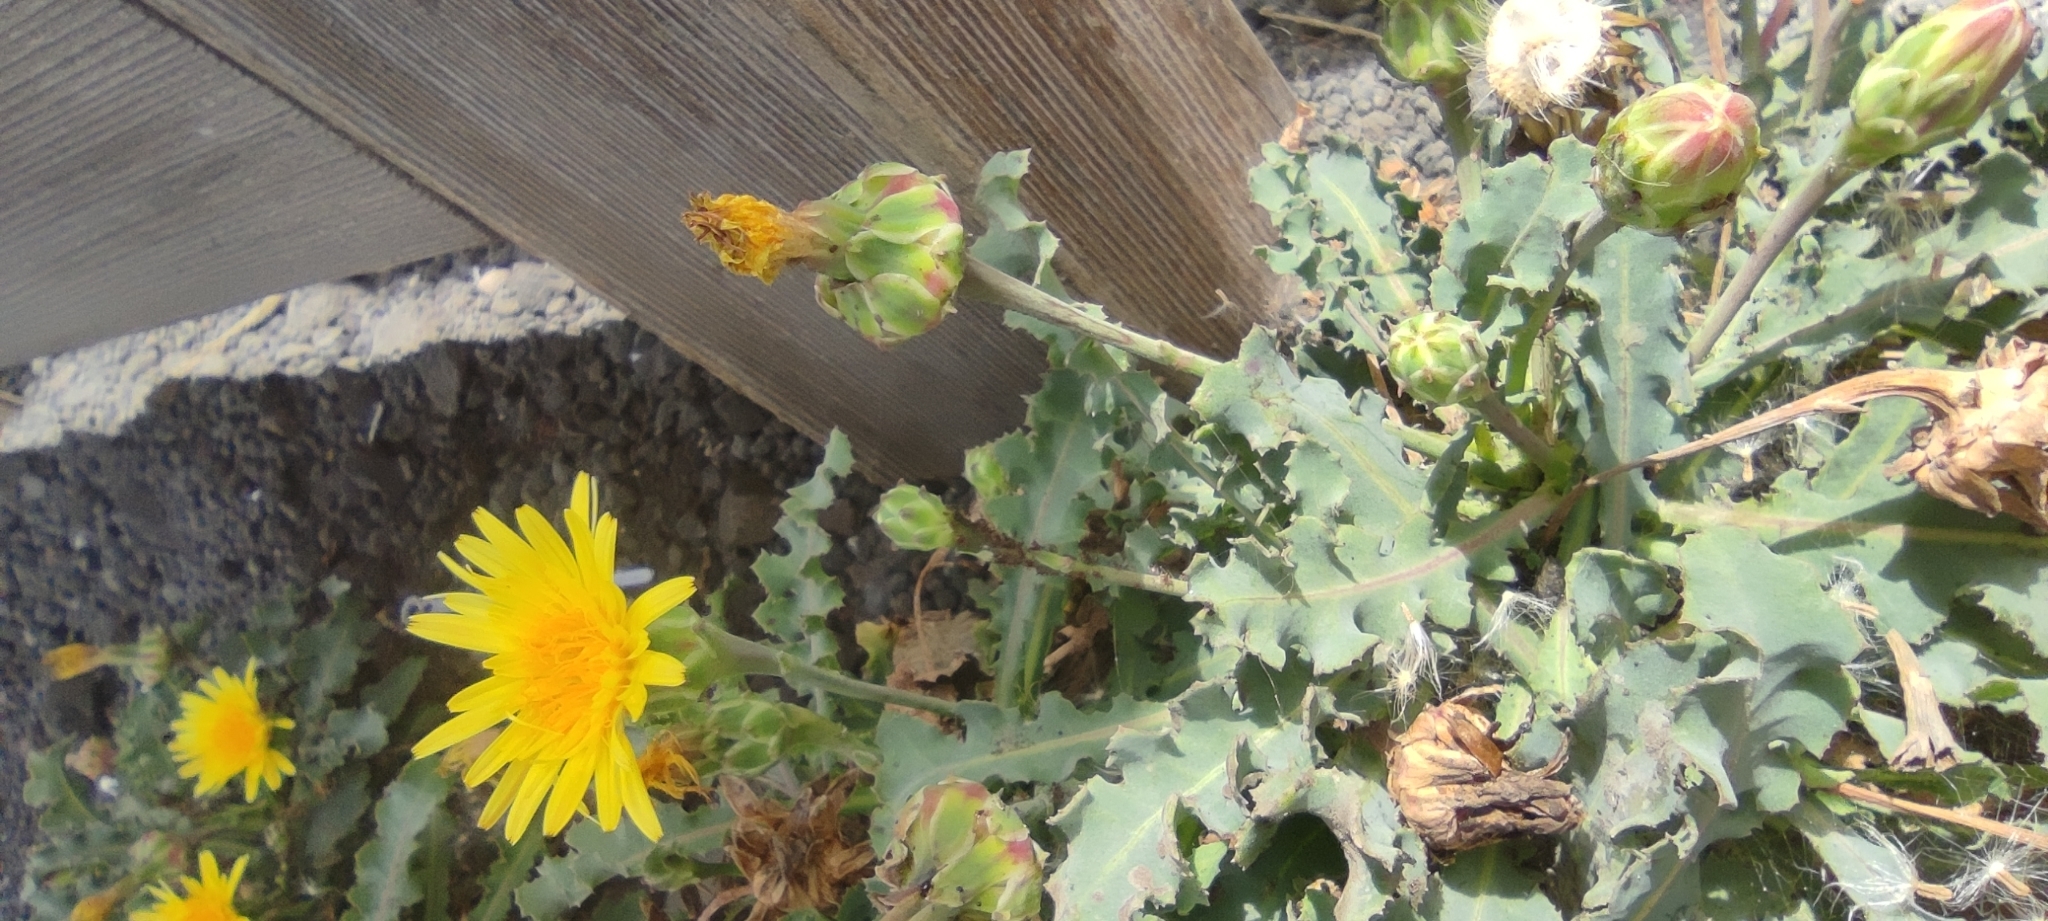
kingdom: Plantae
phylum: Tracheophyta
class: Magnoliopsida
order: Asterales
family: Asteraceae
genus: Reichardia
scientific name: Reichardia ligulata
